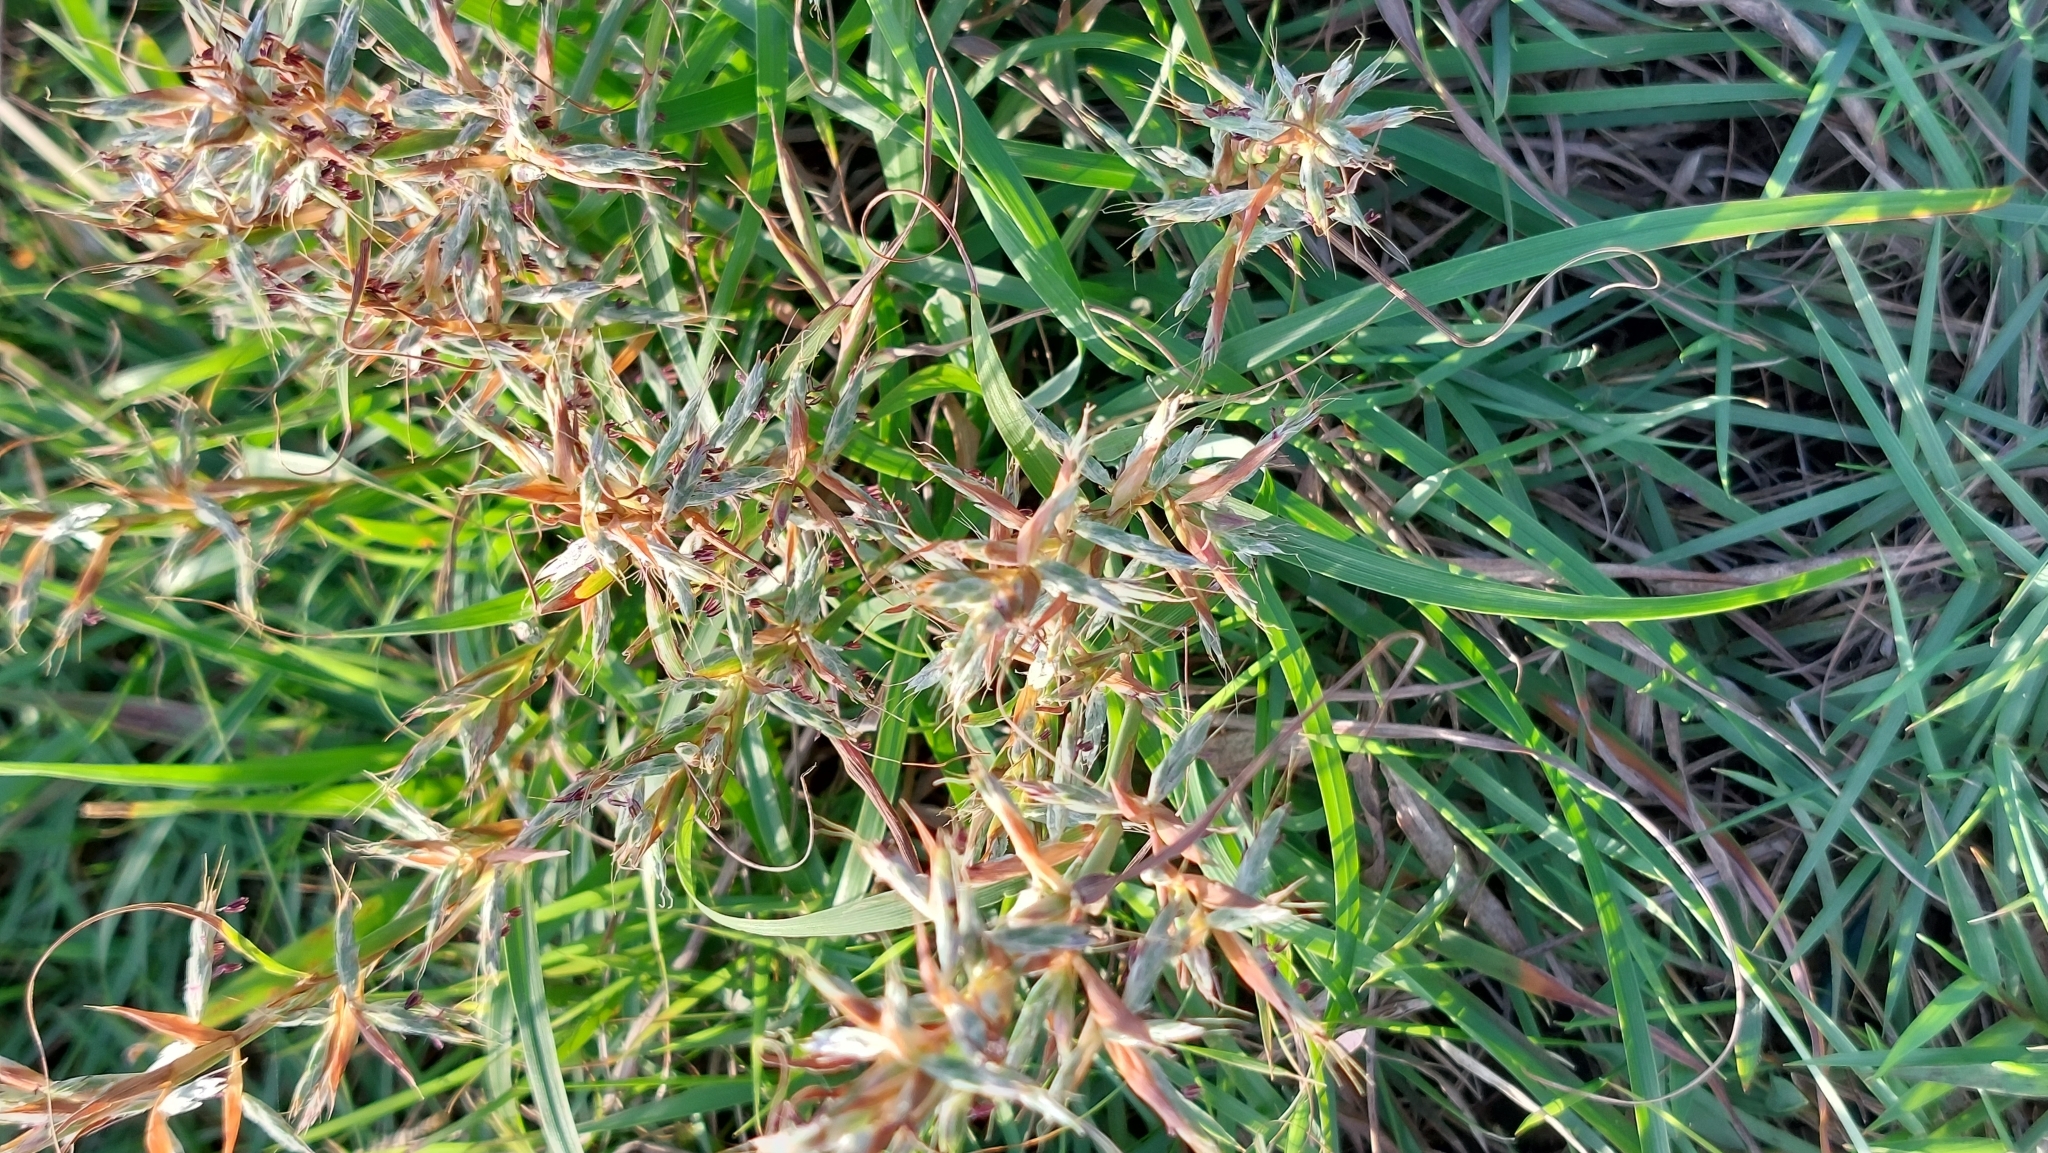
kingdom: Plantae
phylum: Tracheophyta
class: Liliopsida
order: Poales
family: Poaceae
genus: Cymbopogon
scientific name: Cymbopogon tortilis
